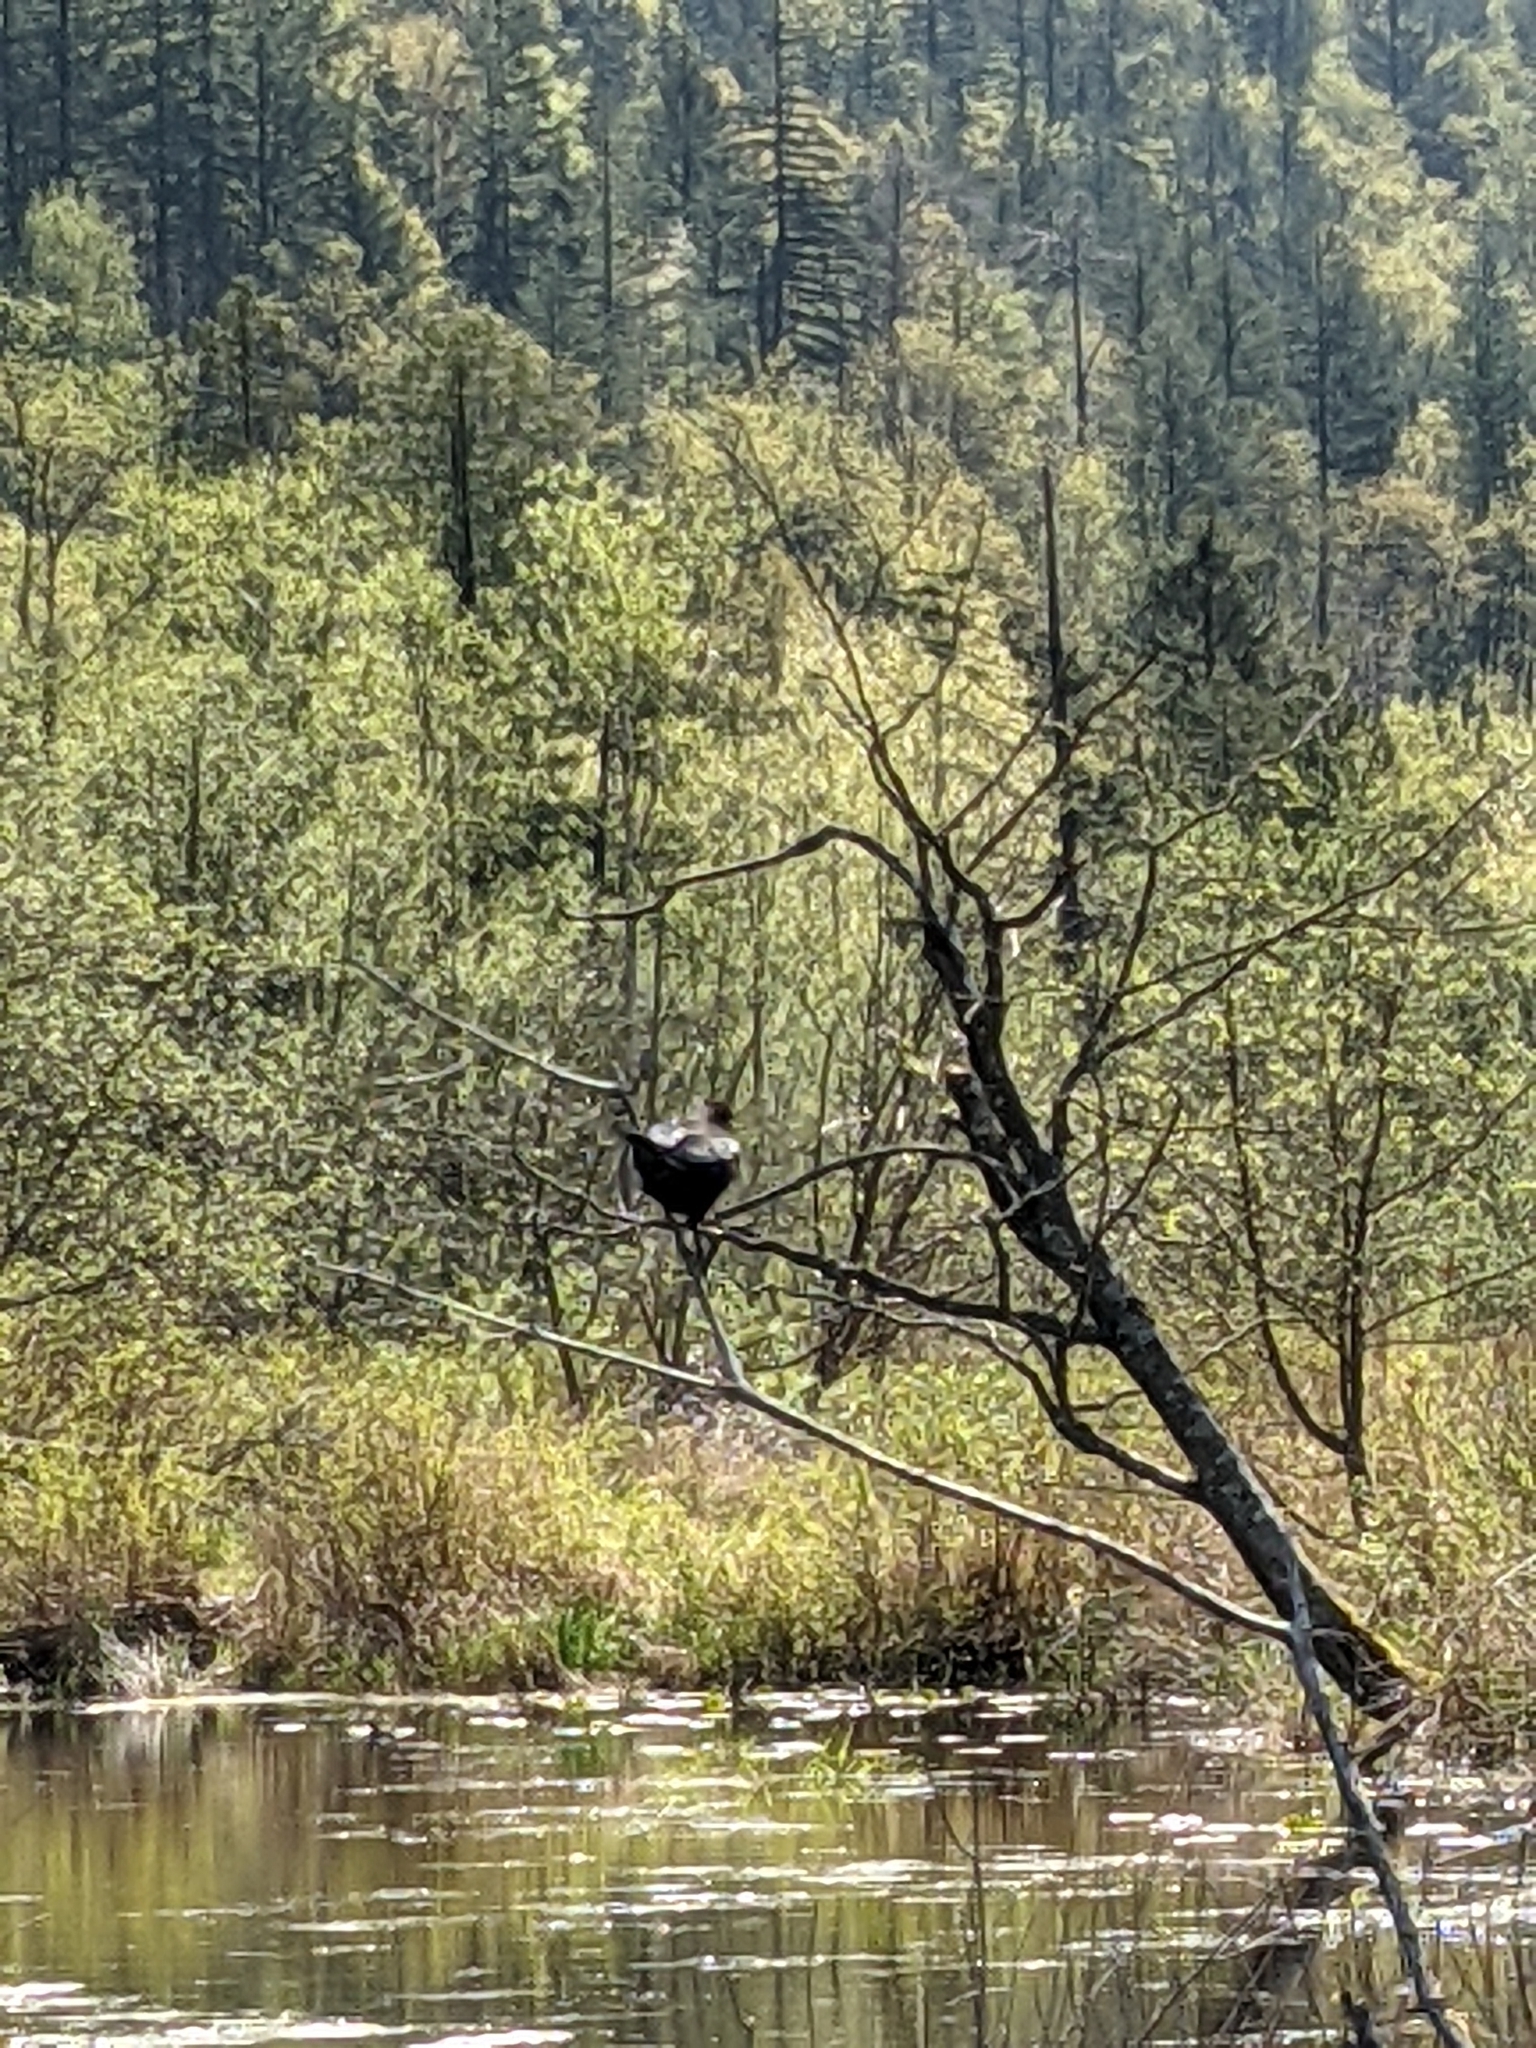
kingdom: Animalia
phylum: Chordata
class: Aves
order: Passeriformes
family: Icteridae
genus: Agelaius
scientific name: Agelaius phoeniceus
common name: Red-winged blackbird
